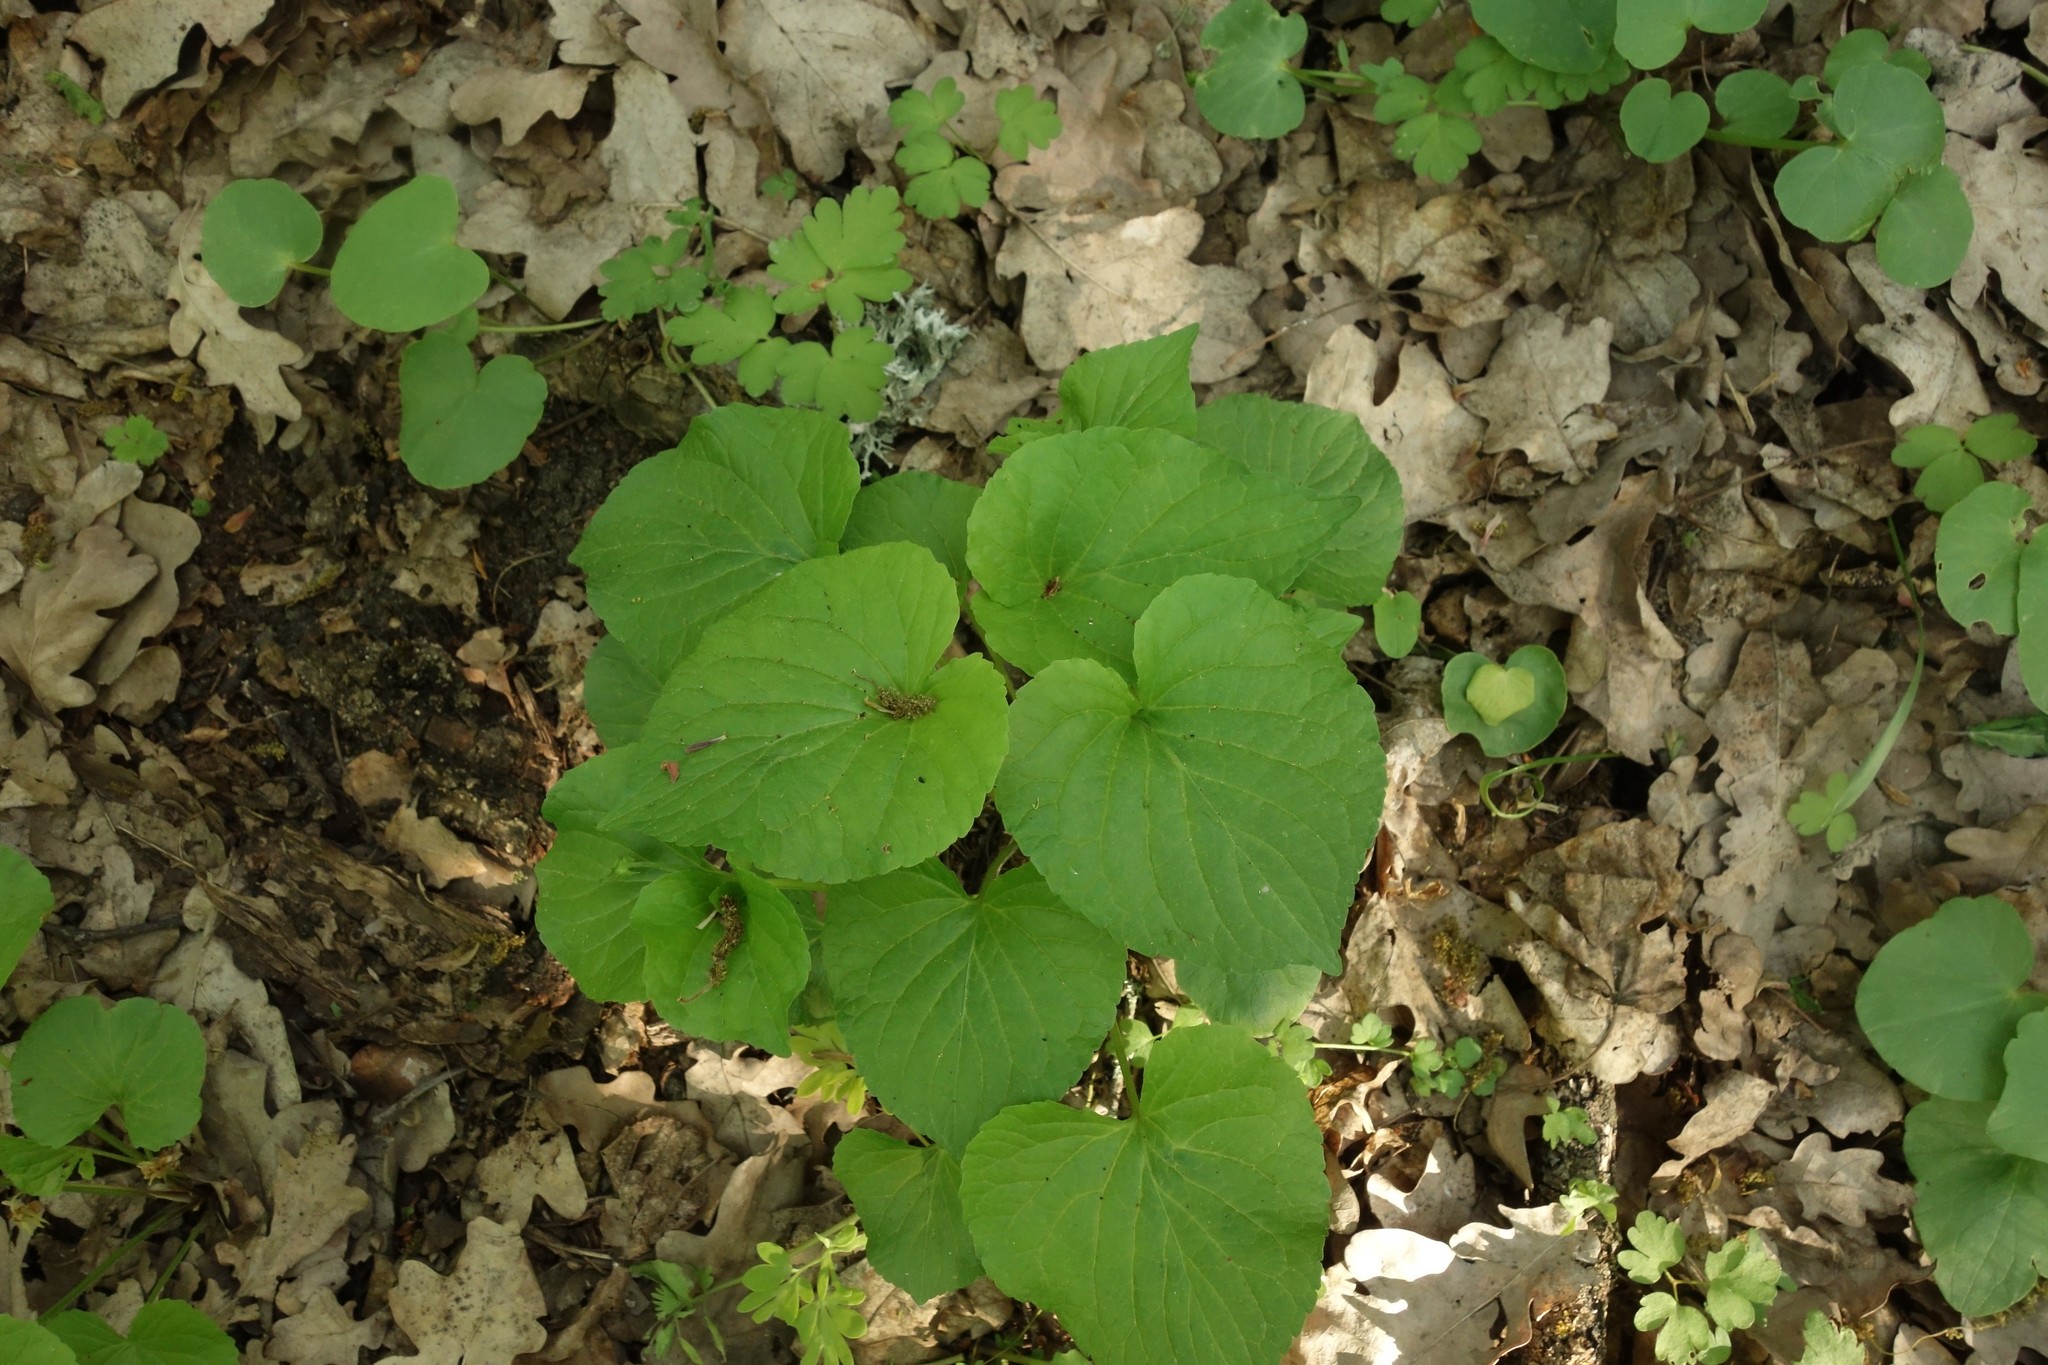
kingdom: Plantae
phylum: Tracheophyta
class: Magnoliopsida
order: Malpighiales
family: Violaceae
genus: Viola
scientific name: Viola mirabilis
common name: Wonder violet
